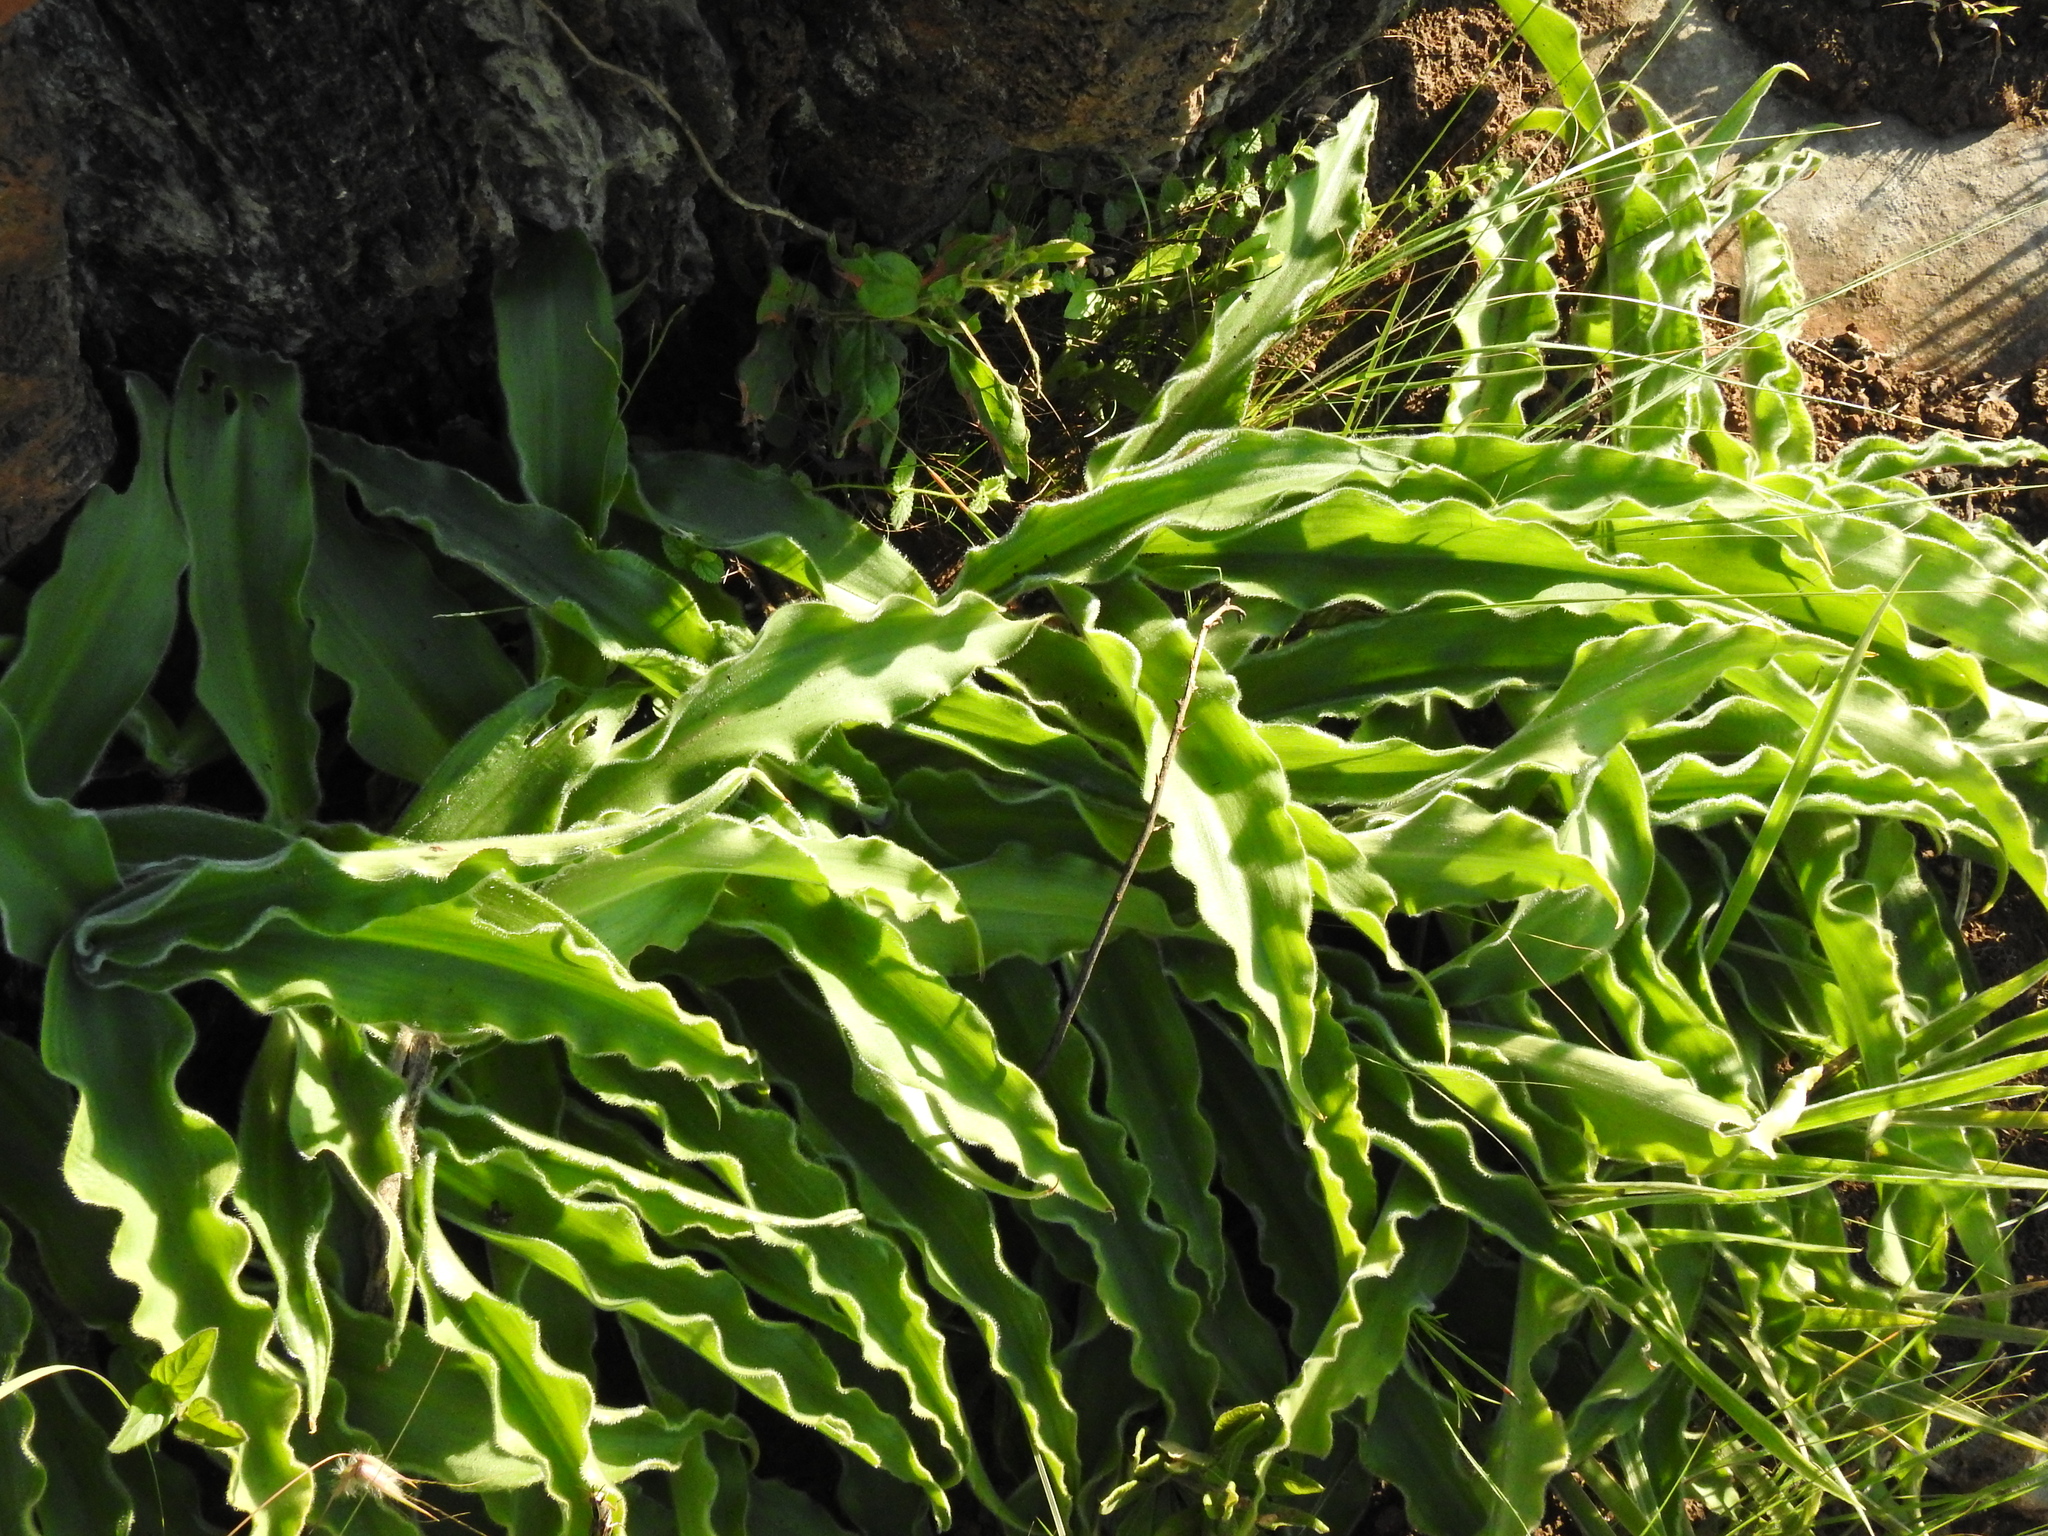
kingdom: Plantae
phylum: Tracheophyta
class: Liliopsida
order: Asparagales
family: Asparagaceae
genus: Merwilla
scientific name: Merwilla plumbea
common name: Blue-squill
